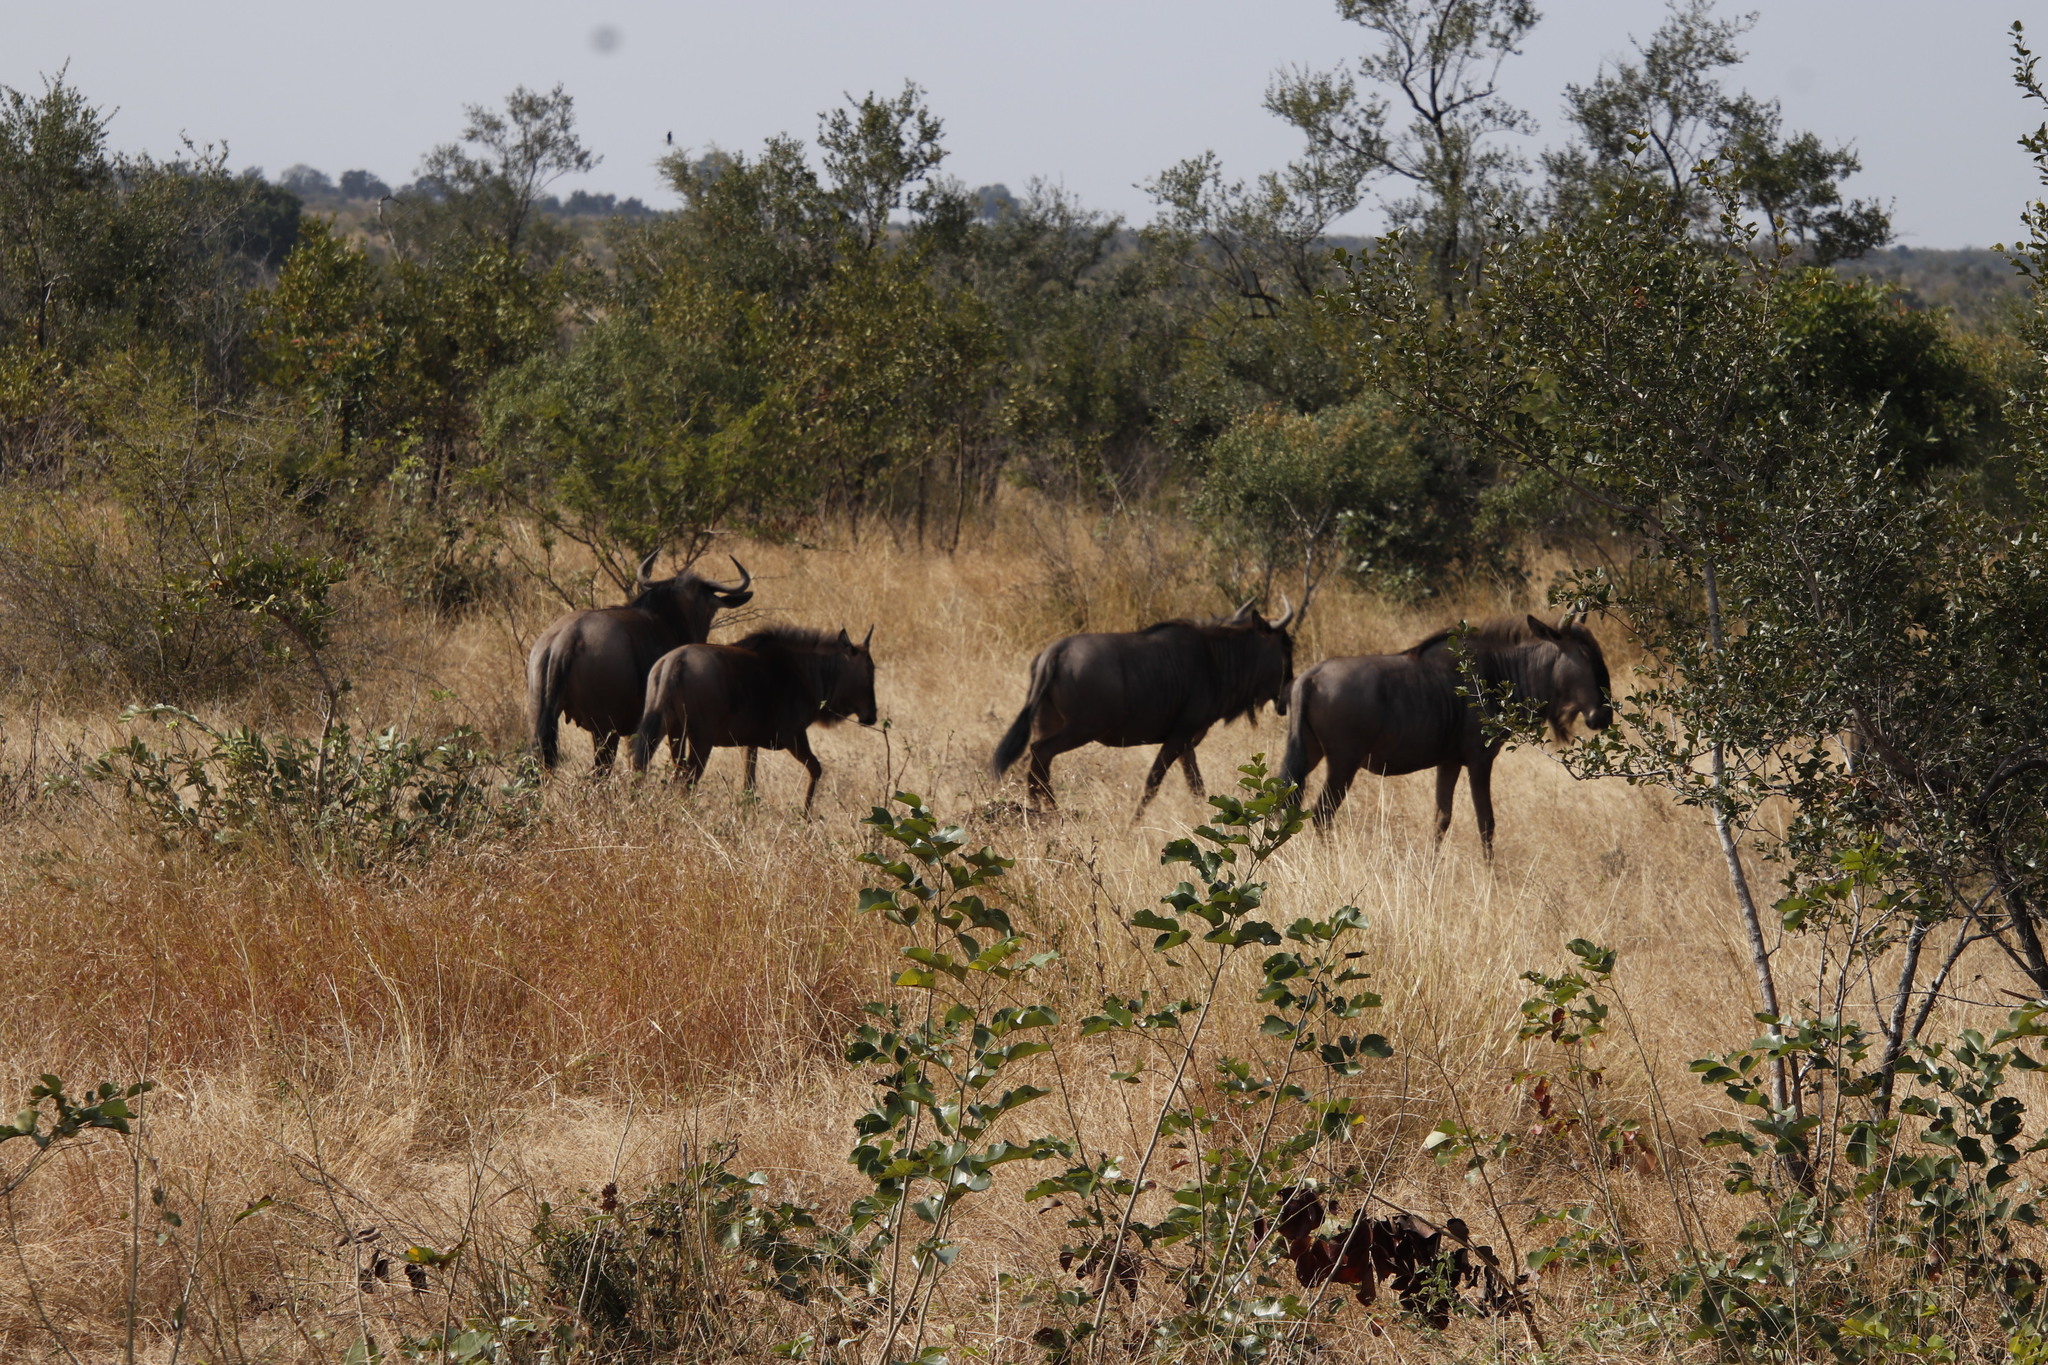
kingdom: Animalia
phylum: Chordata
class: Mammalia
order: Artiodactyla
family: Bovidae
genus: Connochaetes
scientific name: Connochaetes taurinus
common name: Blue wildebeest
